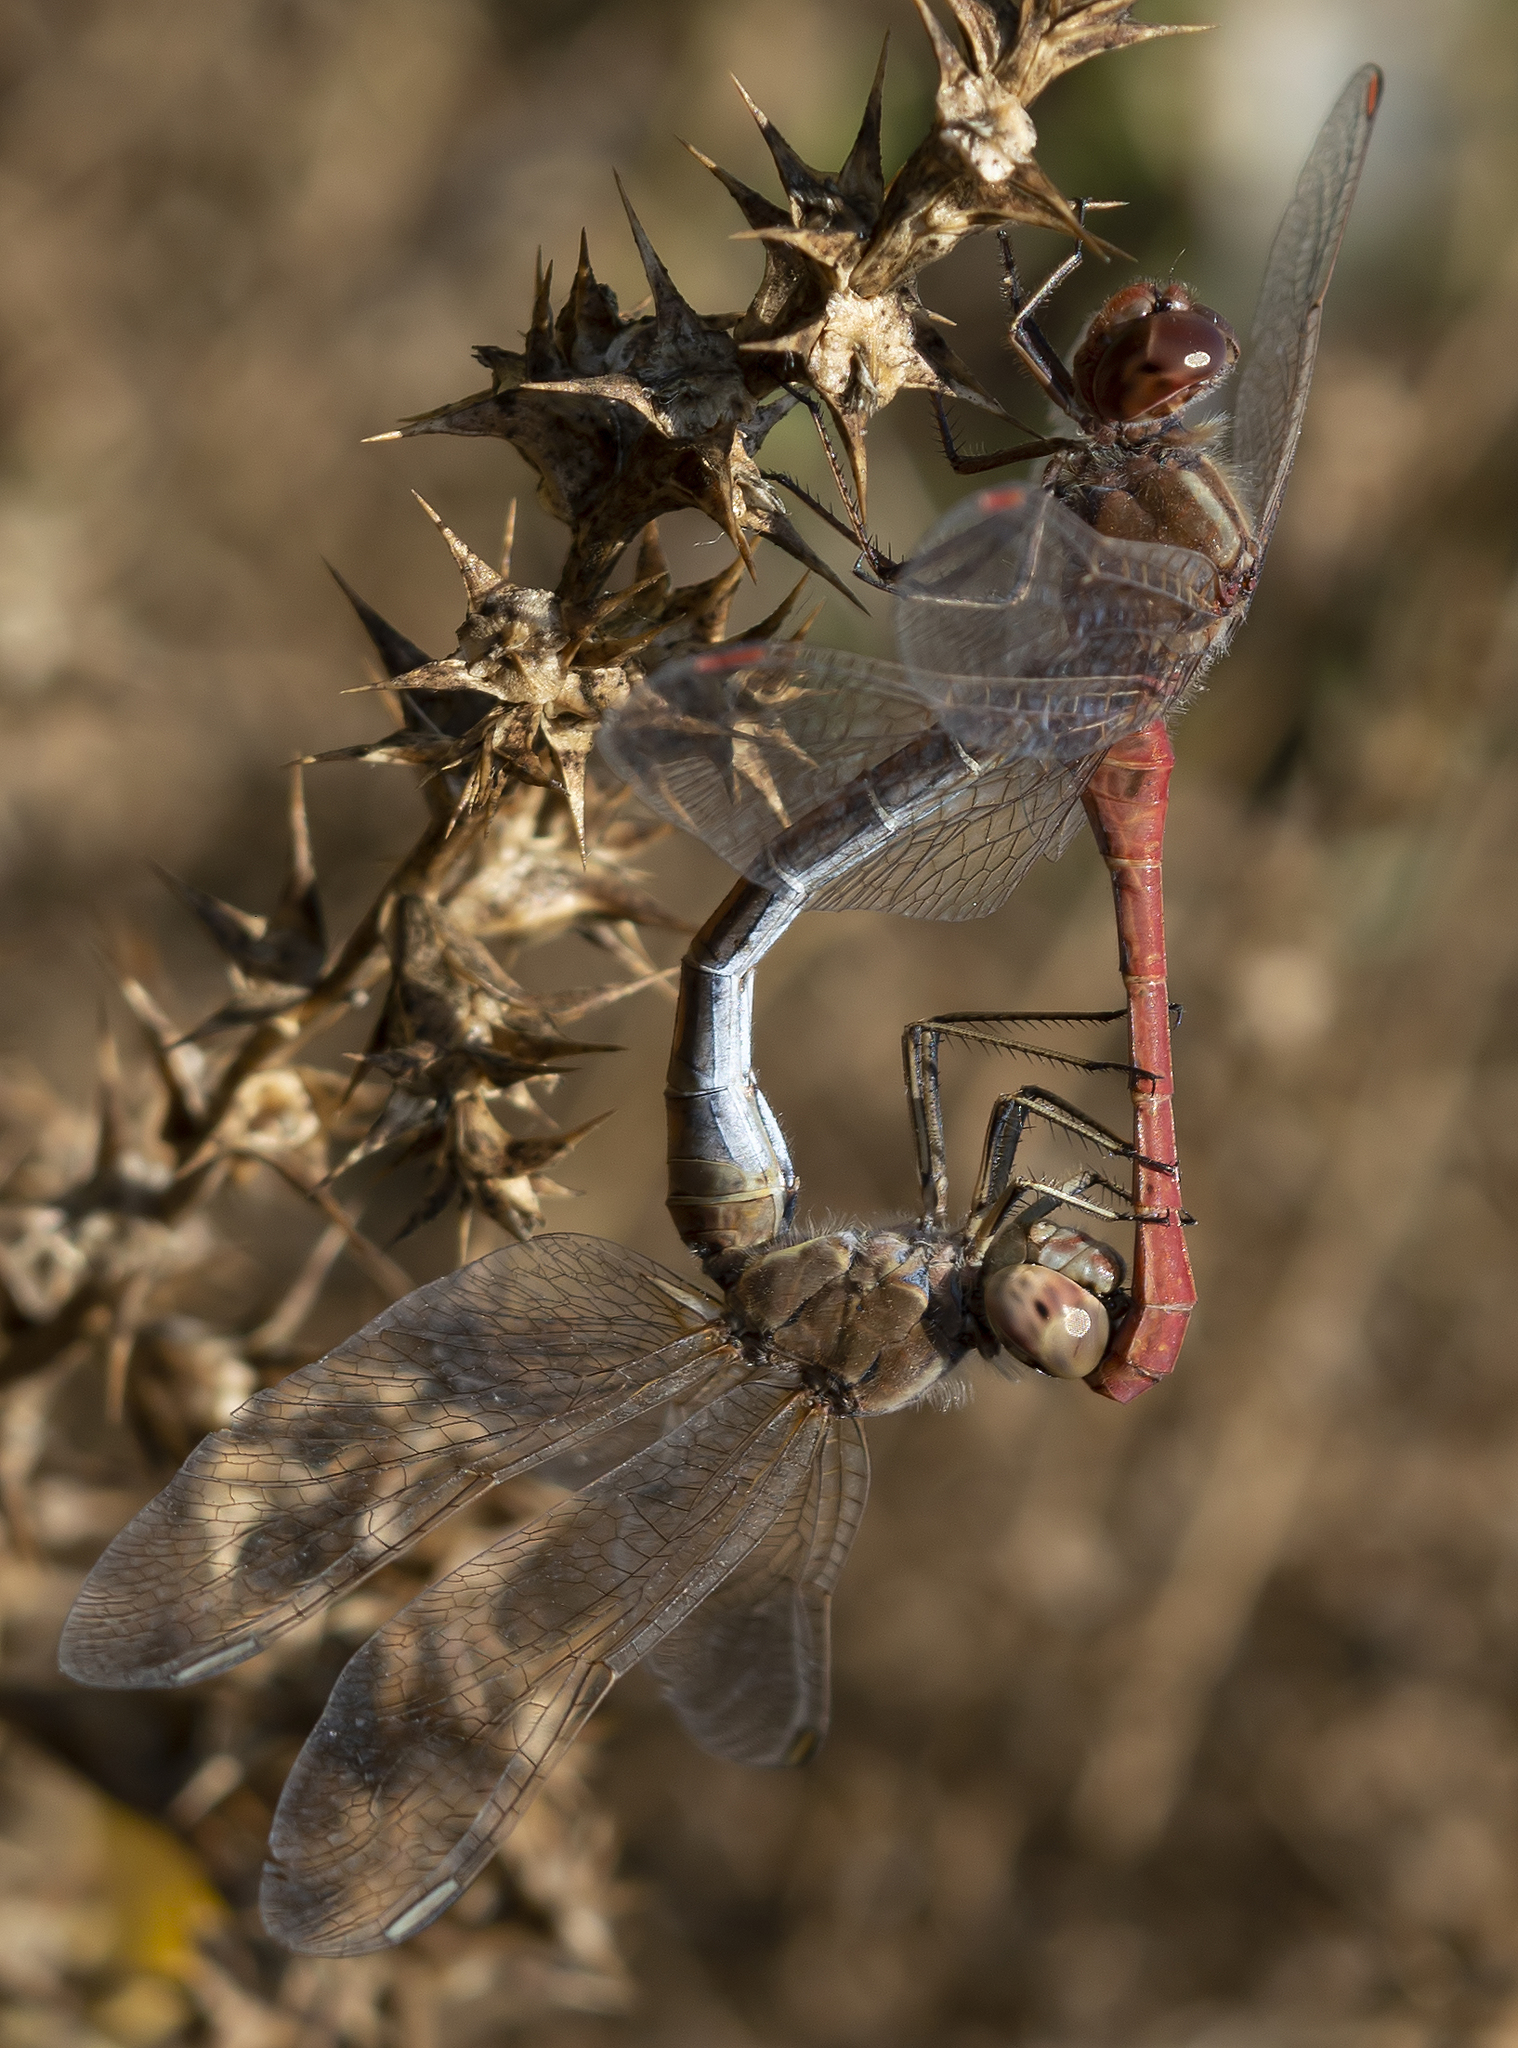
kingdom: Animalia
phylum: Arthropoda
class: Insecta
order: Odonata
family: Libellulidae
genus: Sympetrum
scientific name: Sympetrum meridionale
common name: Southern darter
